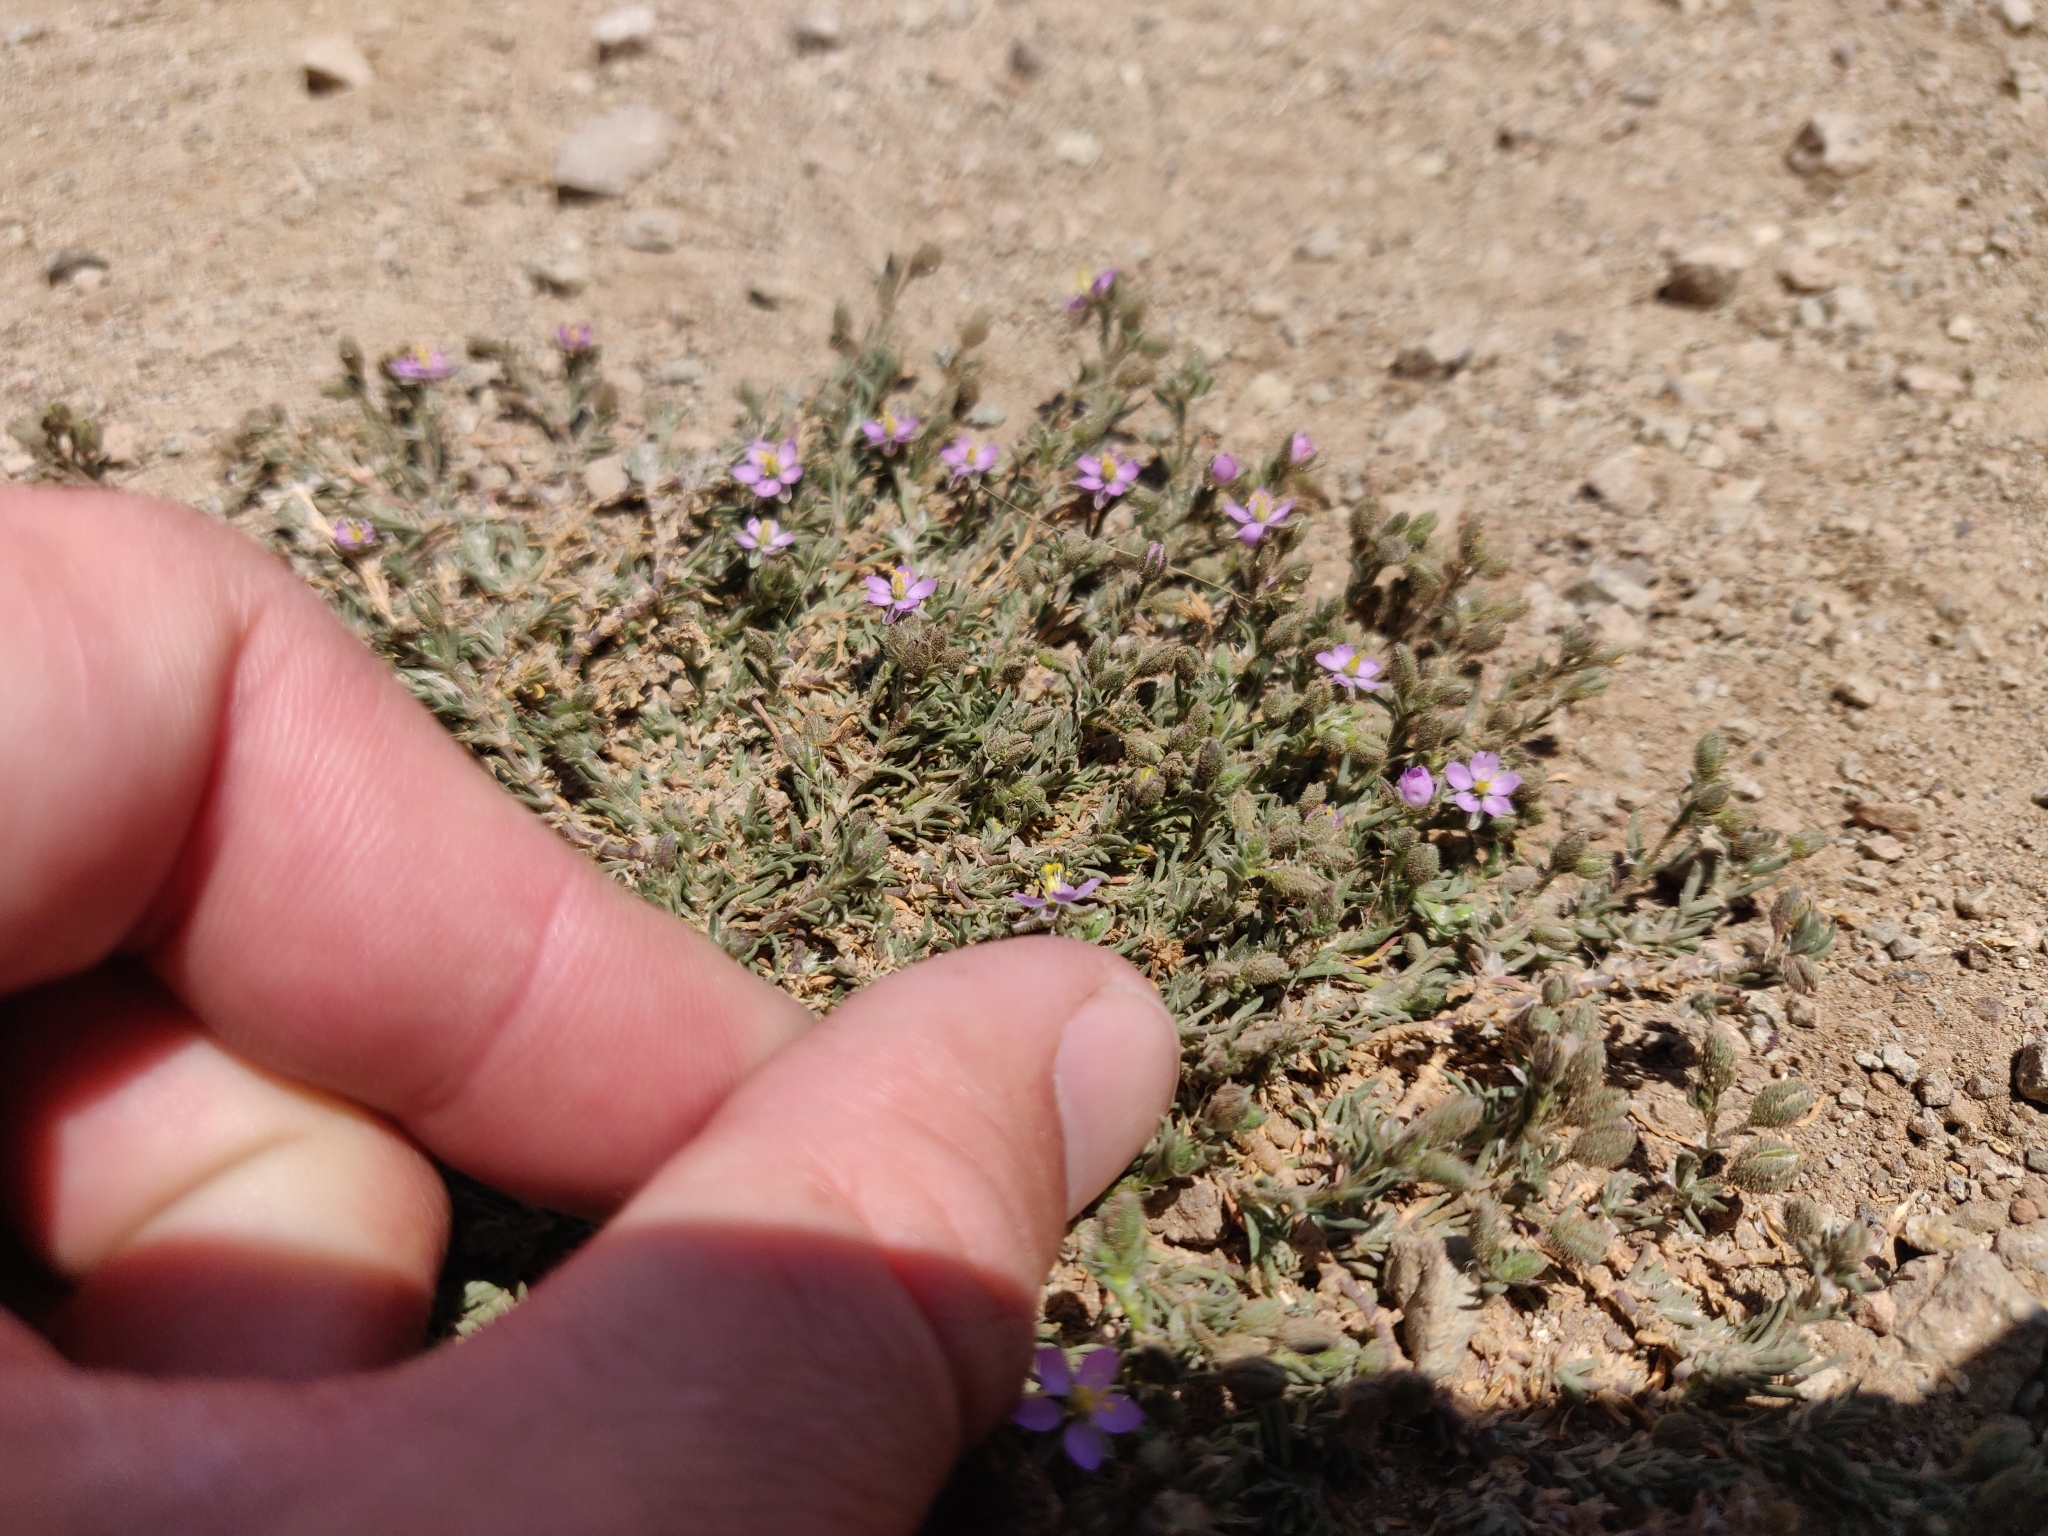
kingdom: Plantae
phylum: Tracheophyta
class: Magnoliopsida
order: Caryophyllales
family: Caryophyllaceae
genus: Spergularia
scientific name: Spergularia rubra
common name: Red sand-spurrey
